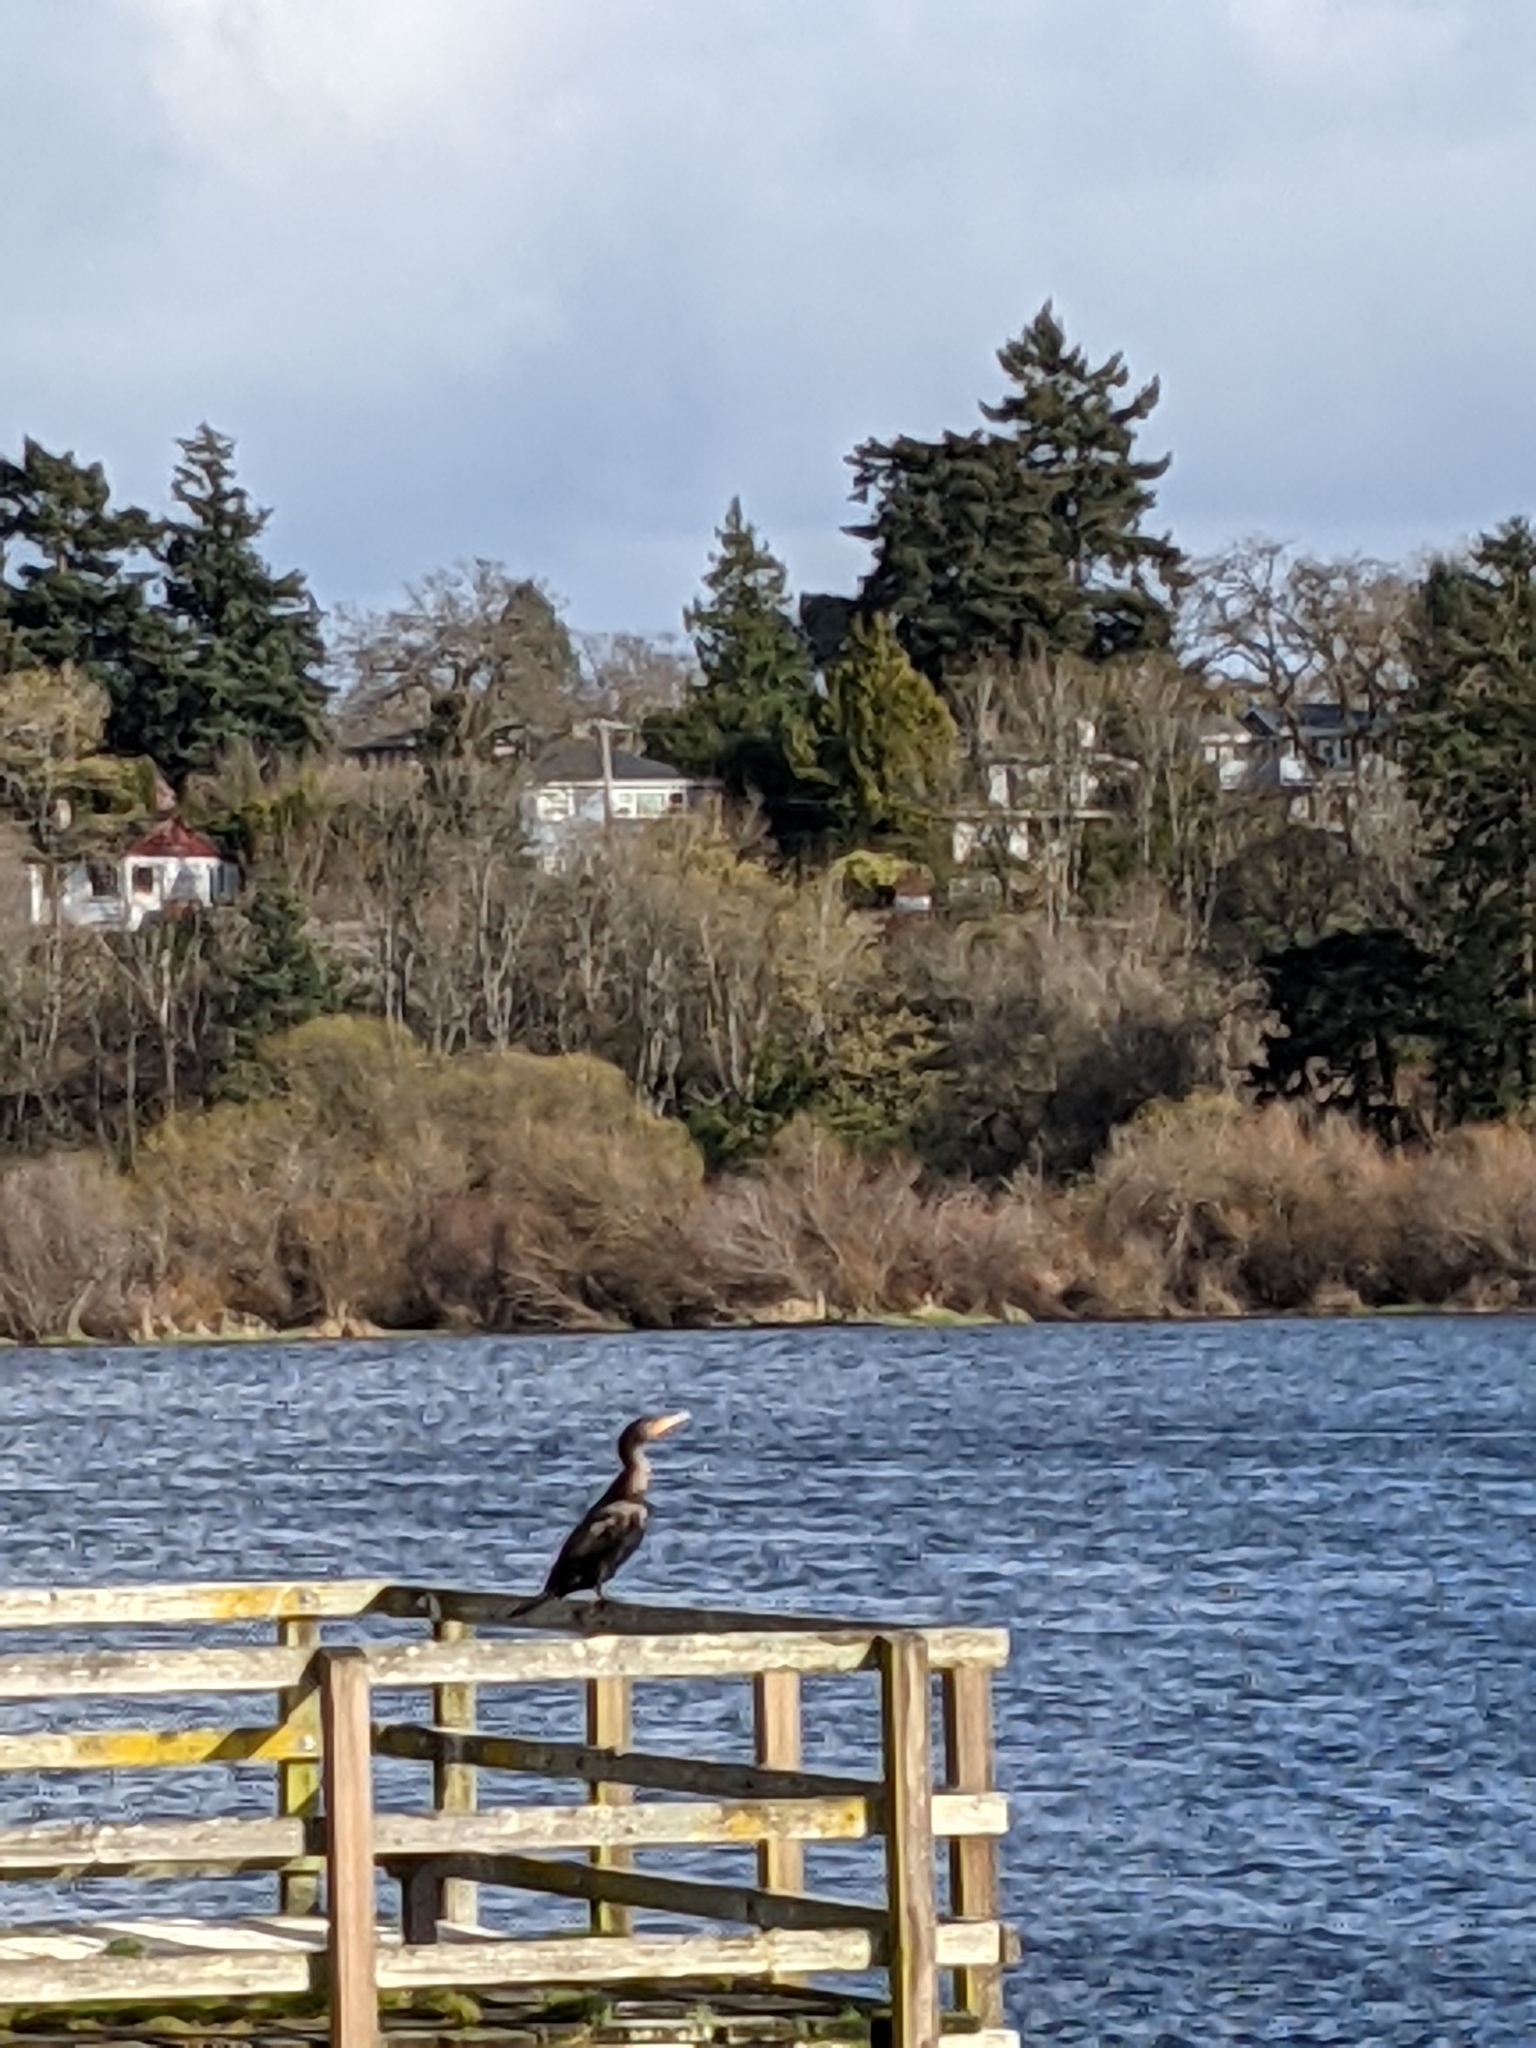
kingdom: Animalia
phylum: Chordata
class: Aves
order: Suliformes
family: Phalacrocoracidae
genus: Phalacrocorax
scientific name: Phalacrocorax auritus
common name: Double-crested cormorant
